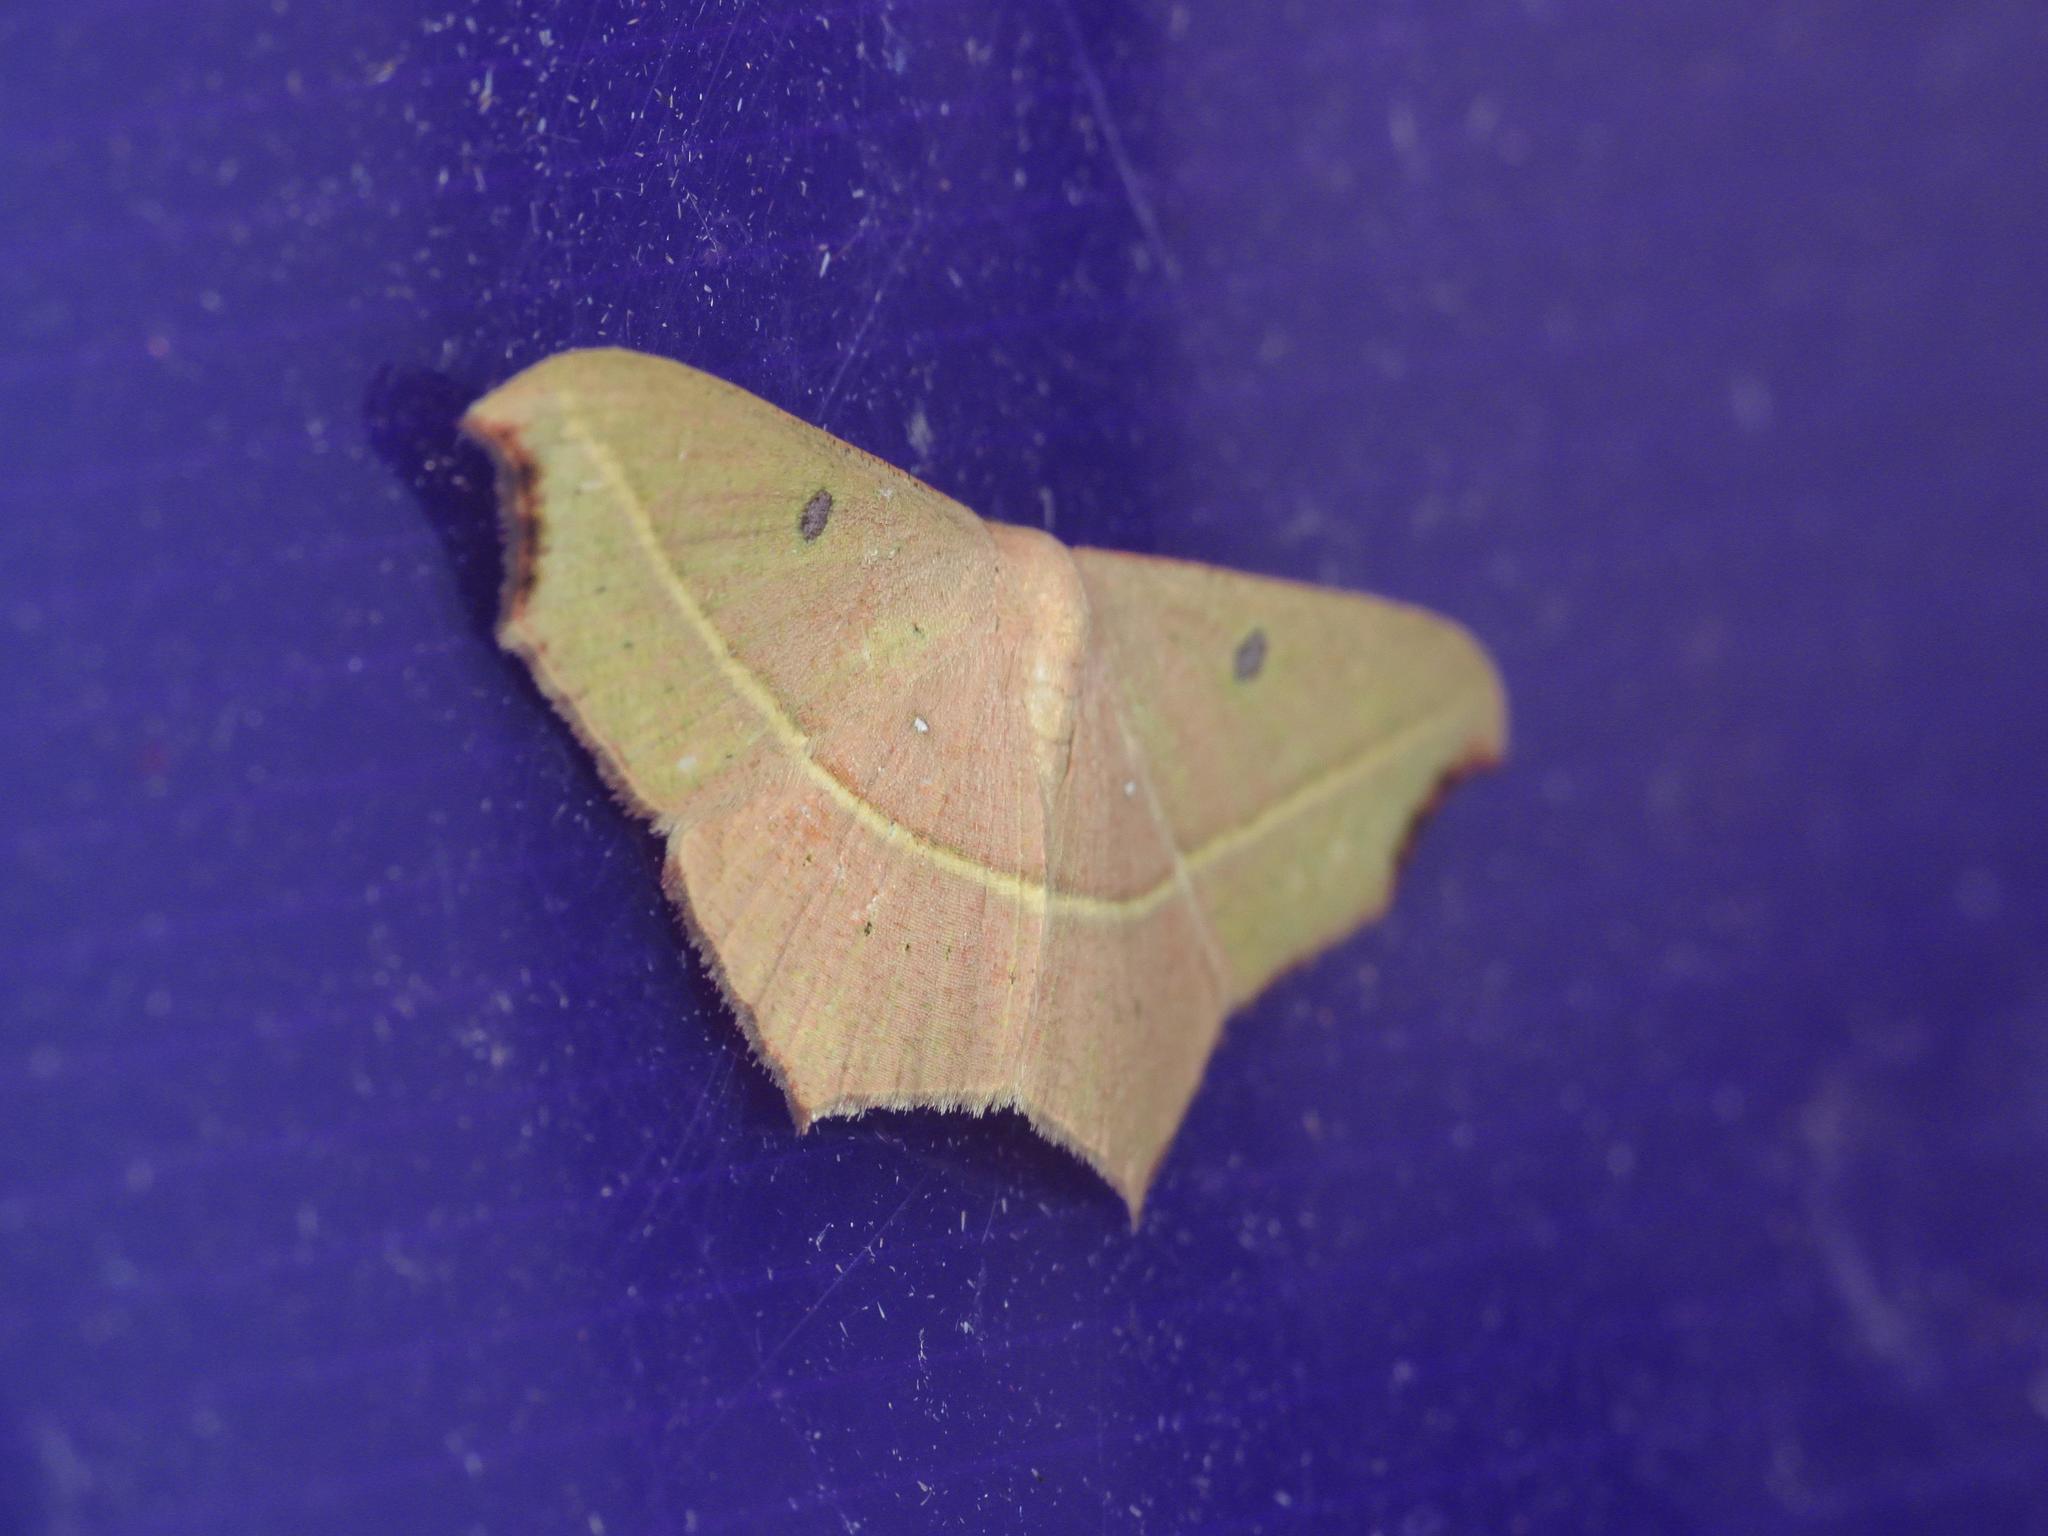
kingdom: Animalia
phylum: Arthropoda
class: Insecta
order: Lepidoptera
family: Geometridae
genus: Traminda
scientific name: Traminda aventiaria
